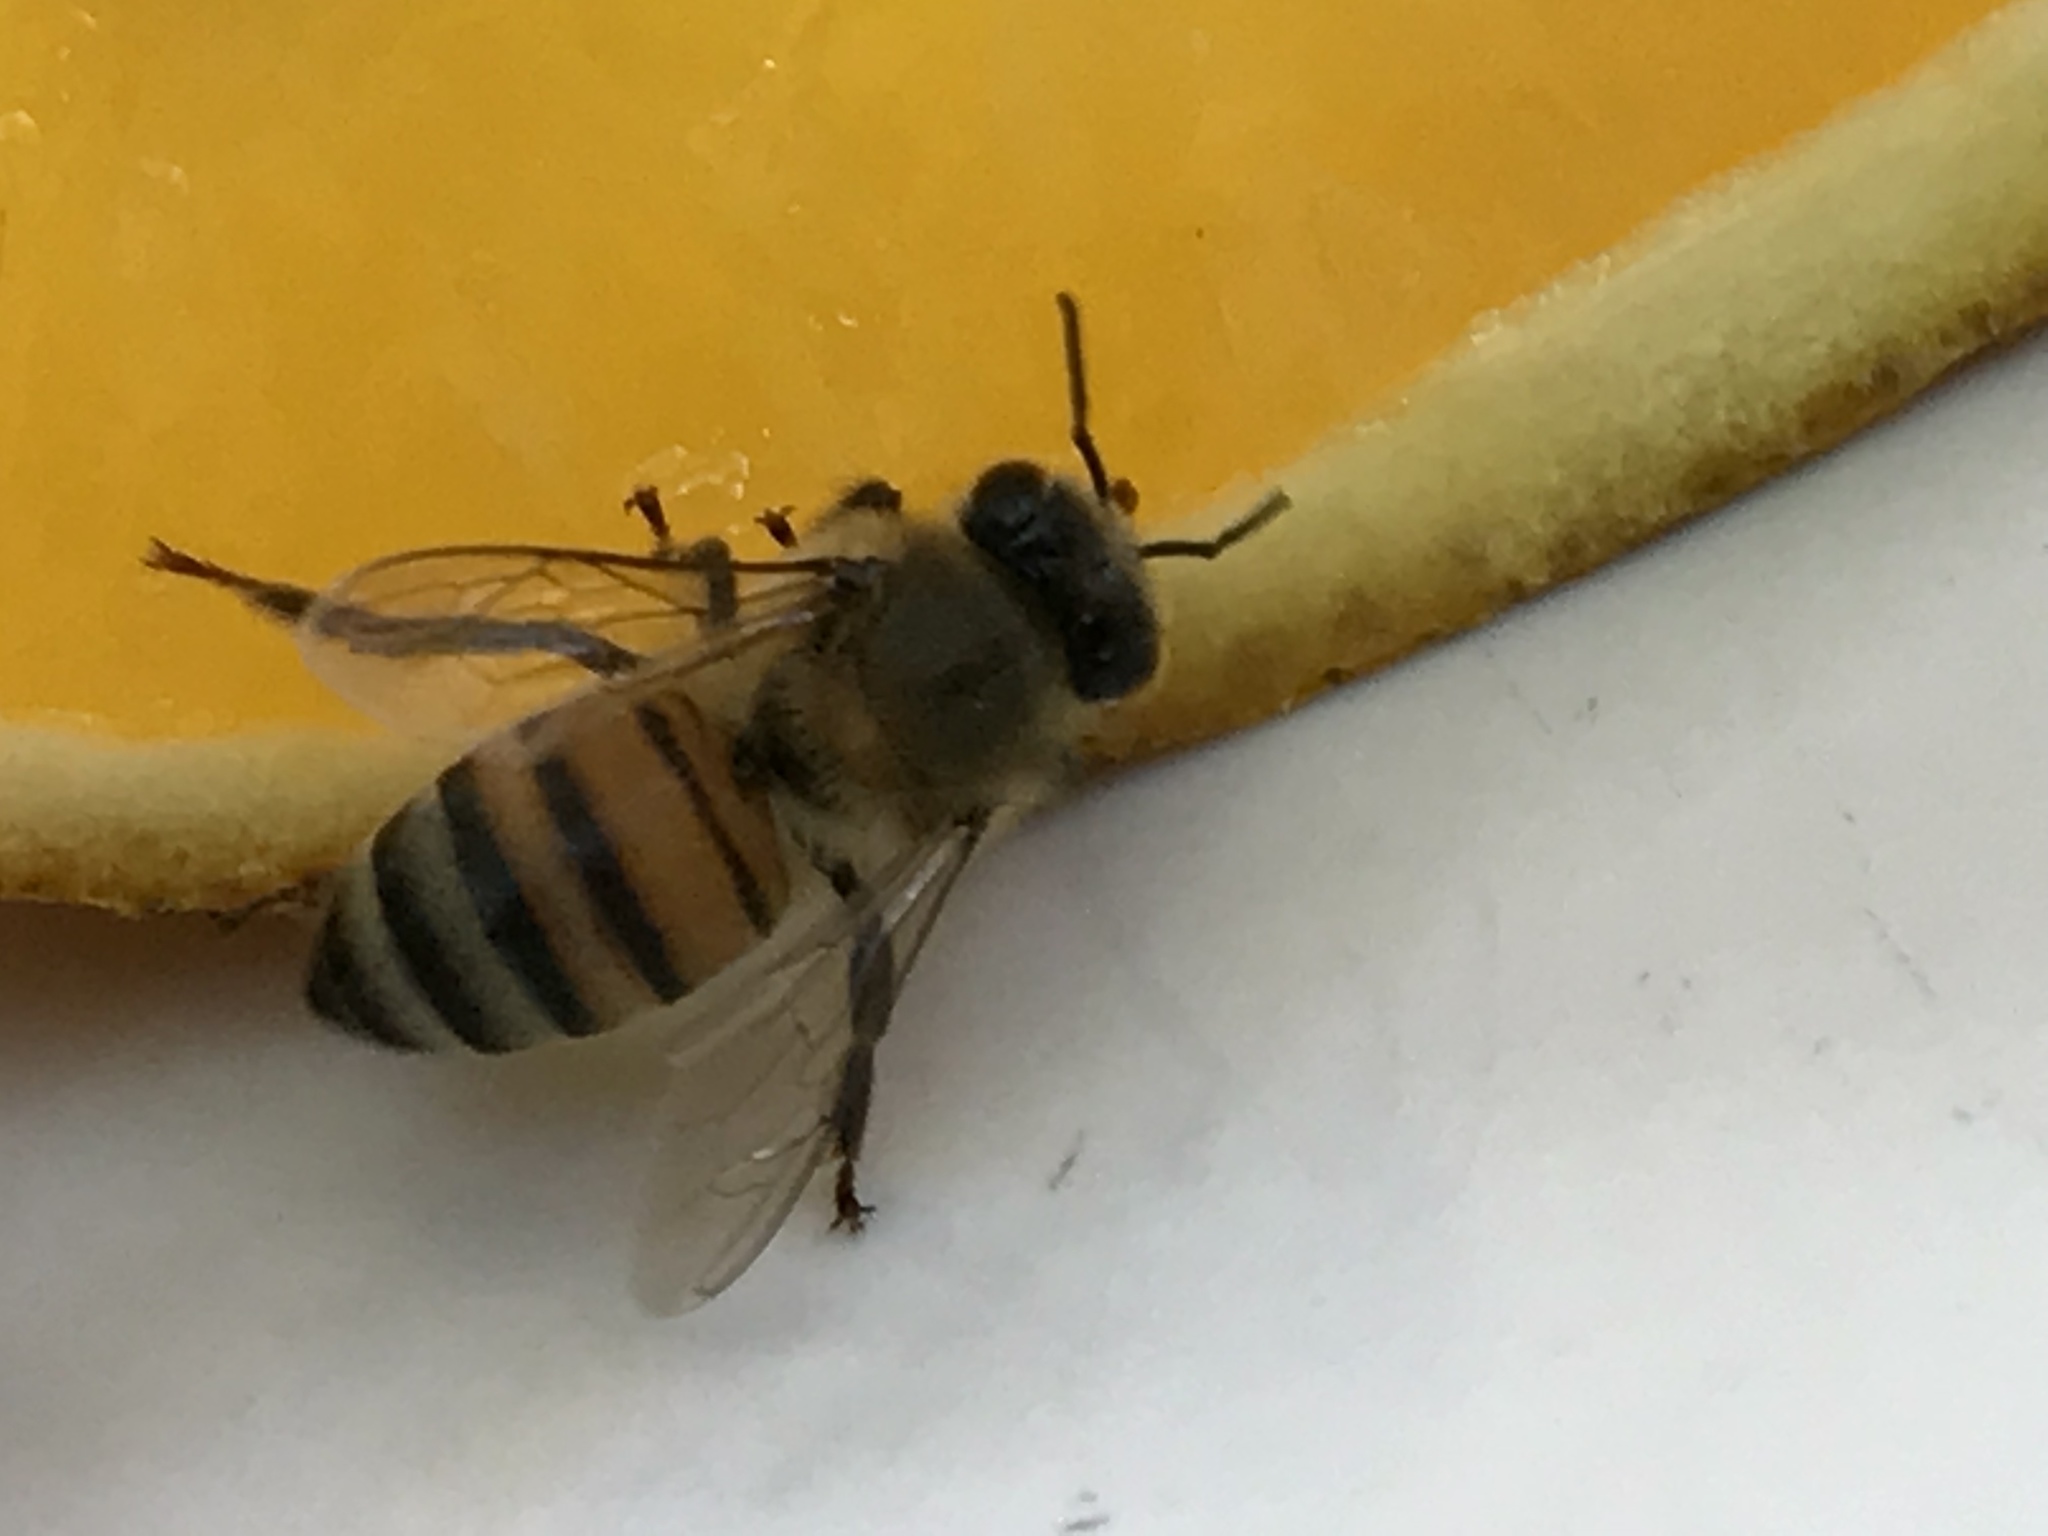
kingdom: Animalia
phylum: Arthropoda
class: Insecta
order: Hymenoptera
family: Apidae
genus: Apis
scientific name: Apis mellifera
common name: Honey bee
